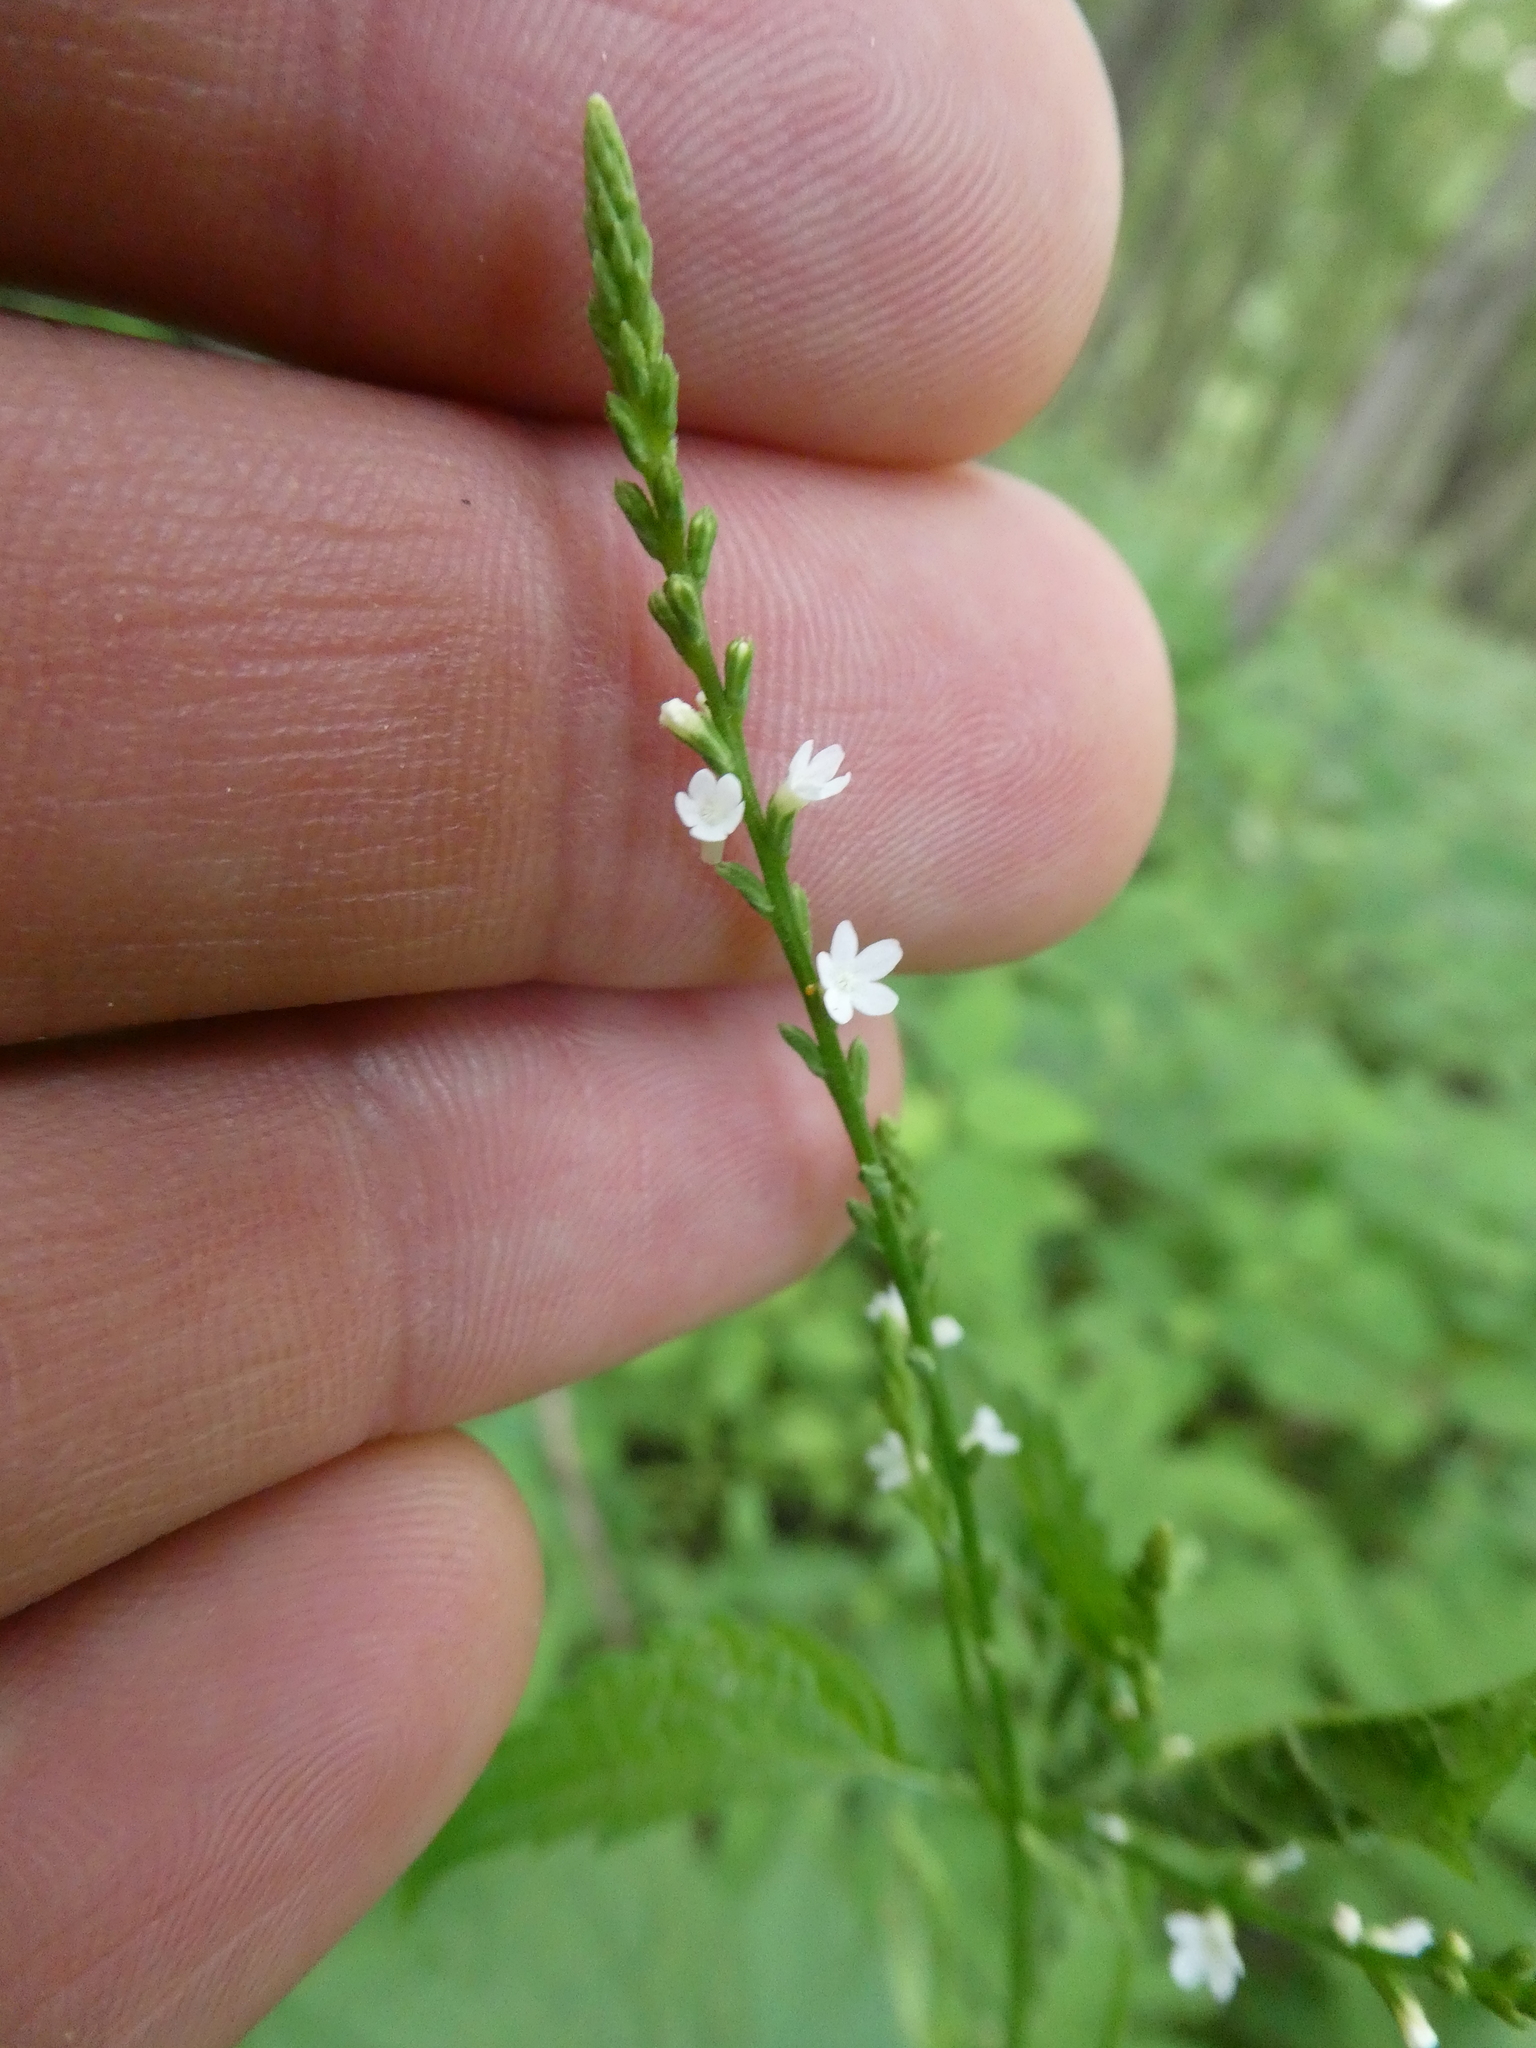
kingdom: Plantae
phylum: Tracheophyta
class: Magnoliopsida
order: Lamiales
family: Verbenaceae
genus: Verbena
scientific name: Verbena urticifolia
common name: Nettle-leaved vervain
